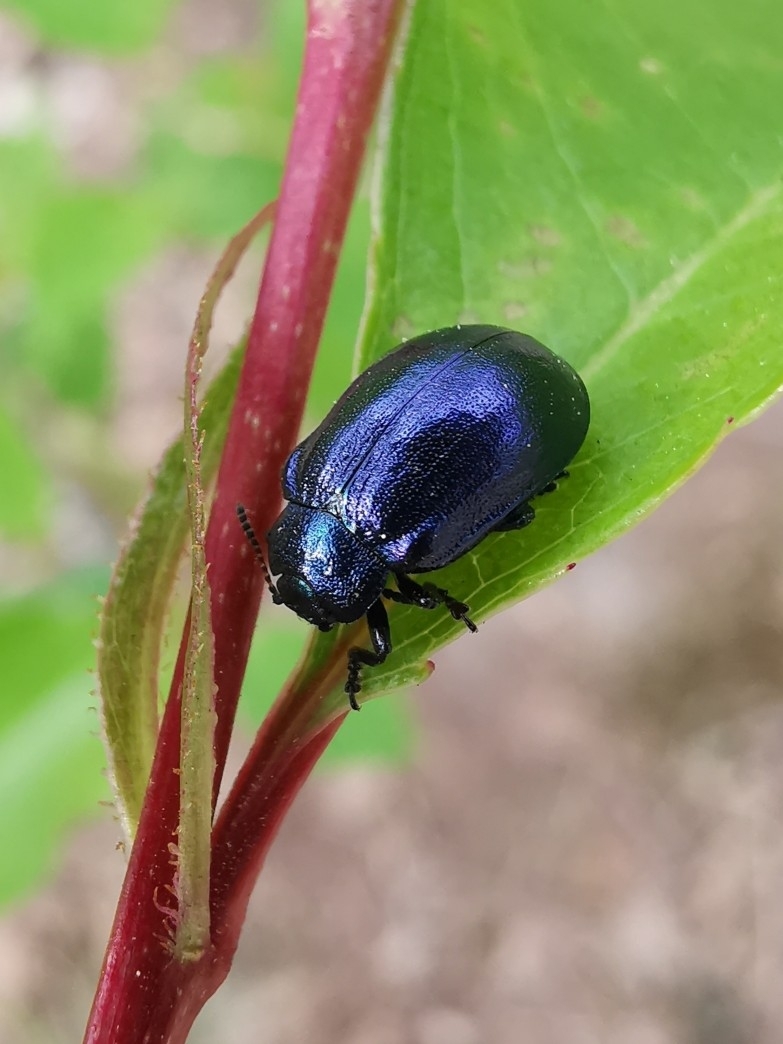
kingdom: Animalia
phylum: Arthropoda
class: Insecta
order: Coleoptera
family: Chrysomelidae
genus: Plagiosterna
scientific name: Plagiosterna aenea
